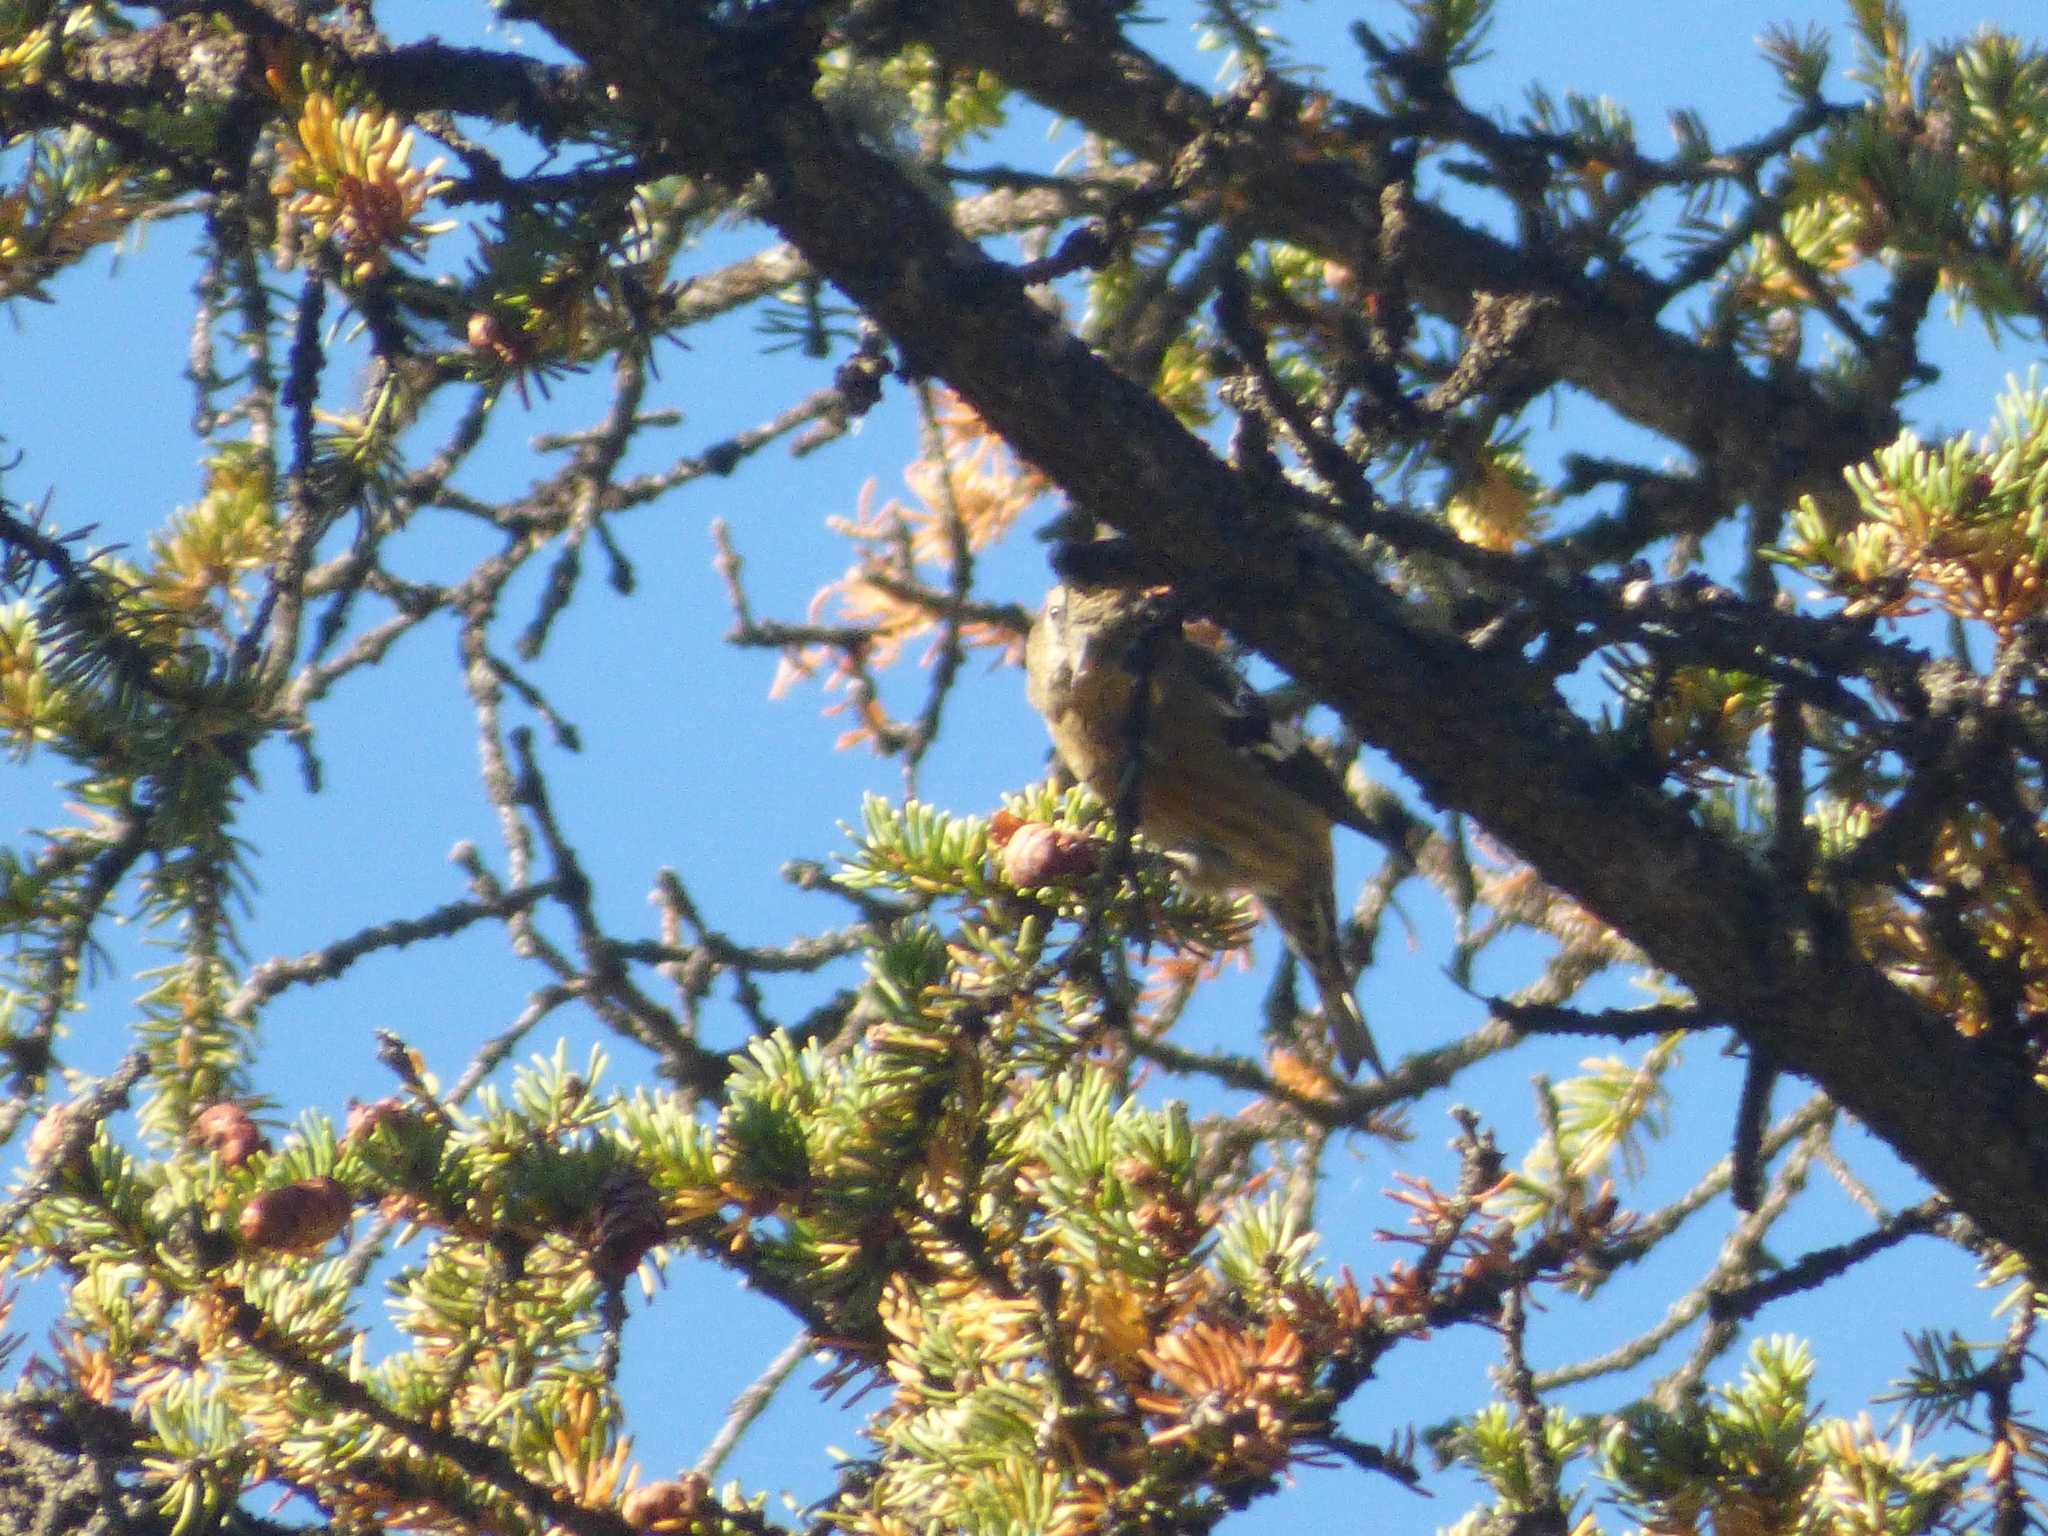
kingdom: Animalia
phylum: Chordata
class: Aves
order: Passeriformes
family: Fringillidae
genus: Loxia
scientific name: Loxia leucoptera
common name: Two-barred crossbill
